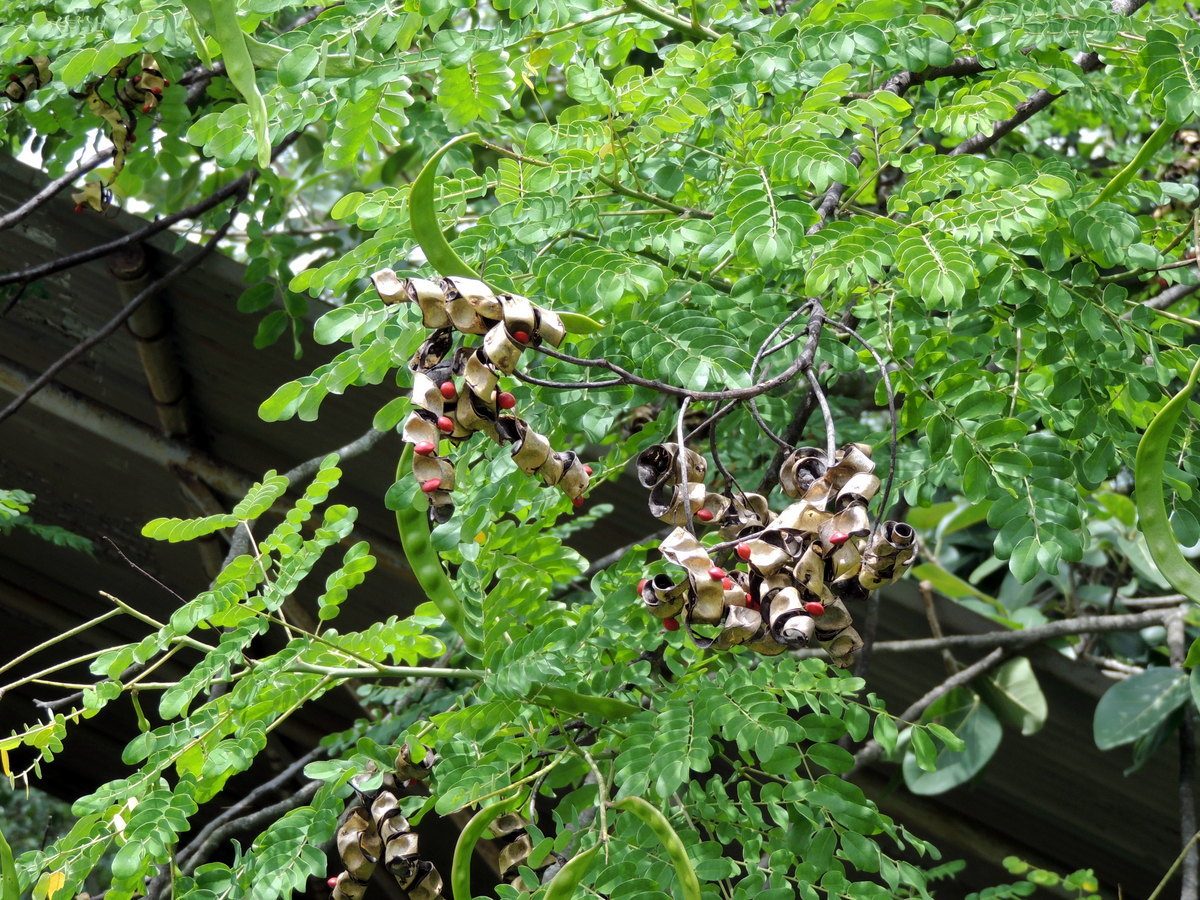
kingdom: Plantae
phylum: Tracheophyta
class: Magnoliopsida
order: Fabales
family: Fabaceae
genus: Adenanthera
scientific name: Adenanthera pavonina
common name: Red beadtree
